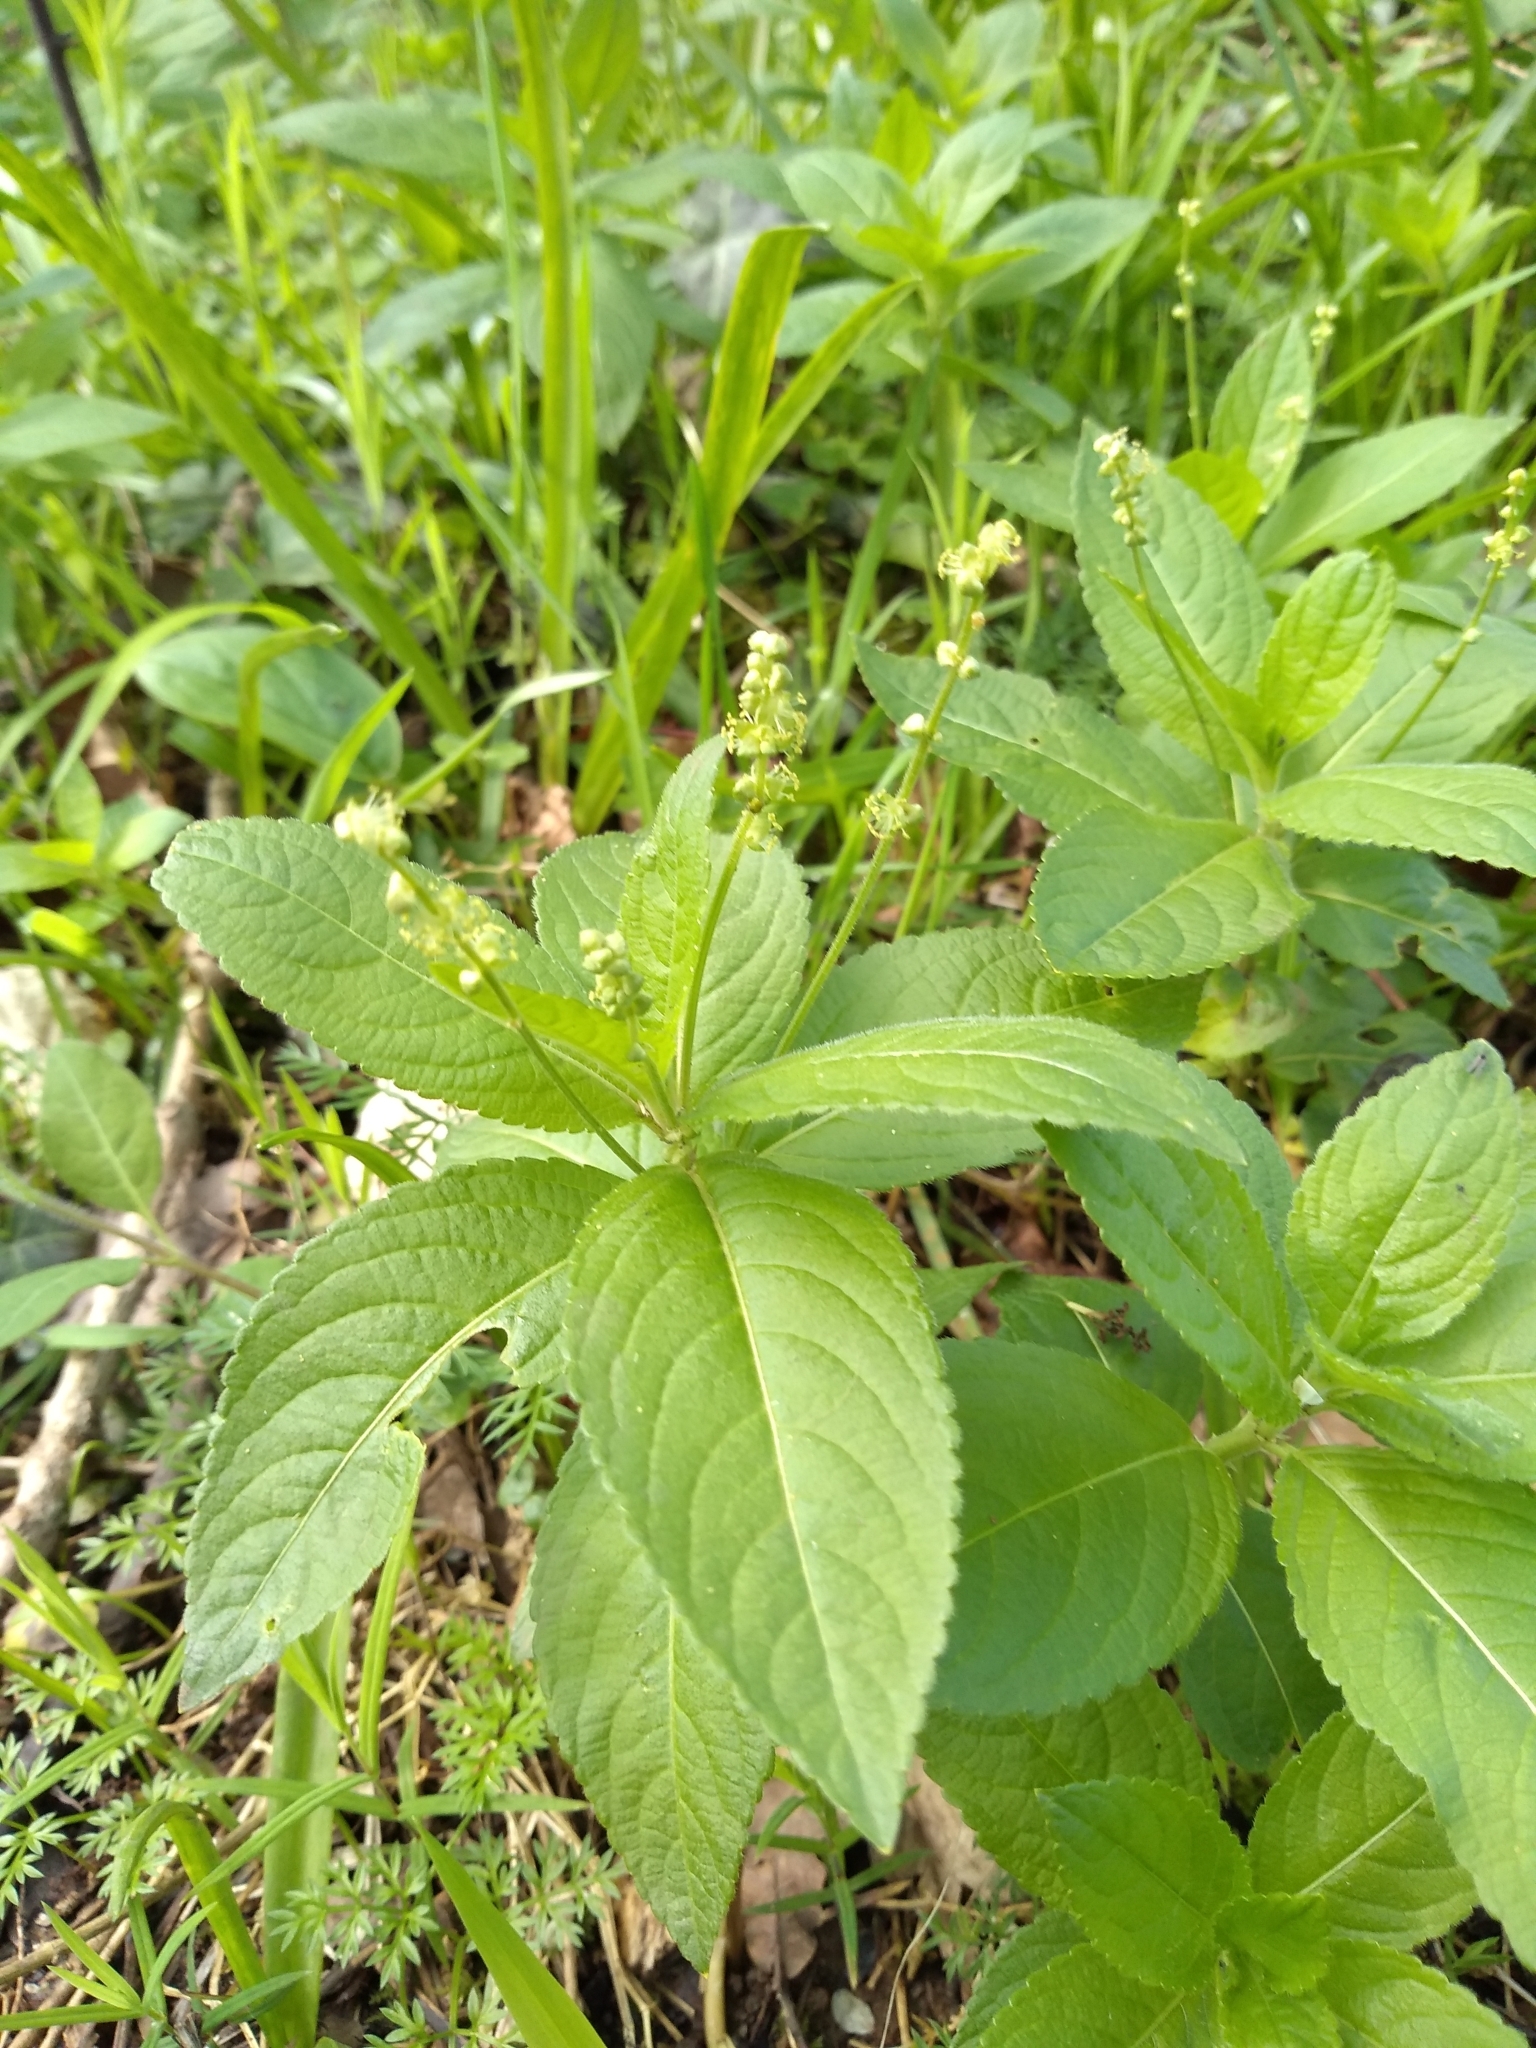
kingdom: Plantae
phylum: Tracheophyta
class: Magnoliopsida
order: Malpighiales
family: Euphorbiaceae
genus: Mercurialis
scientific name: Mercurialis perennis
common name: Dog mercury
